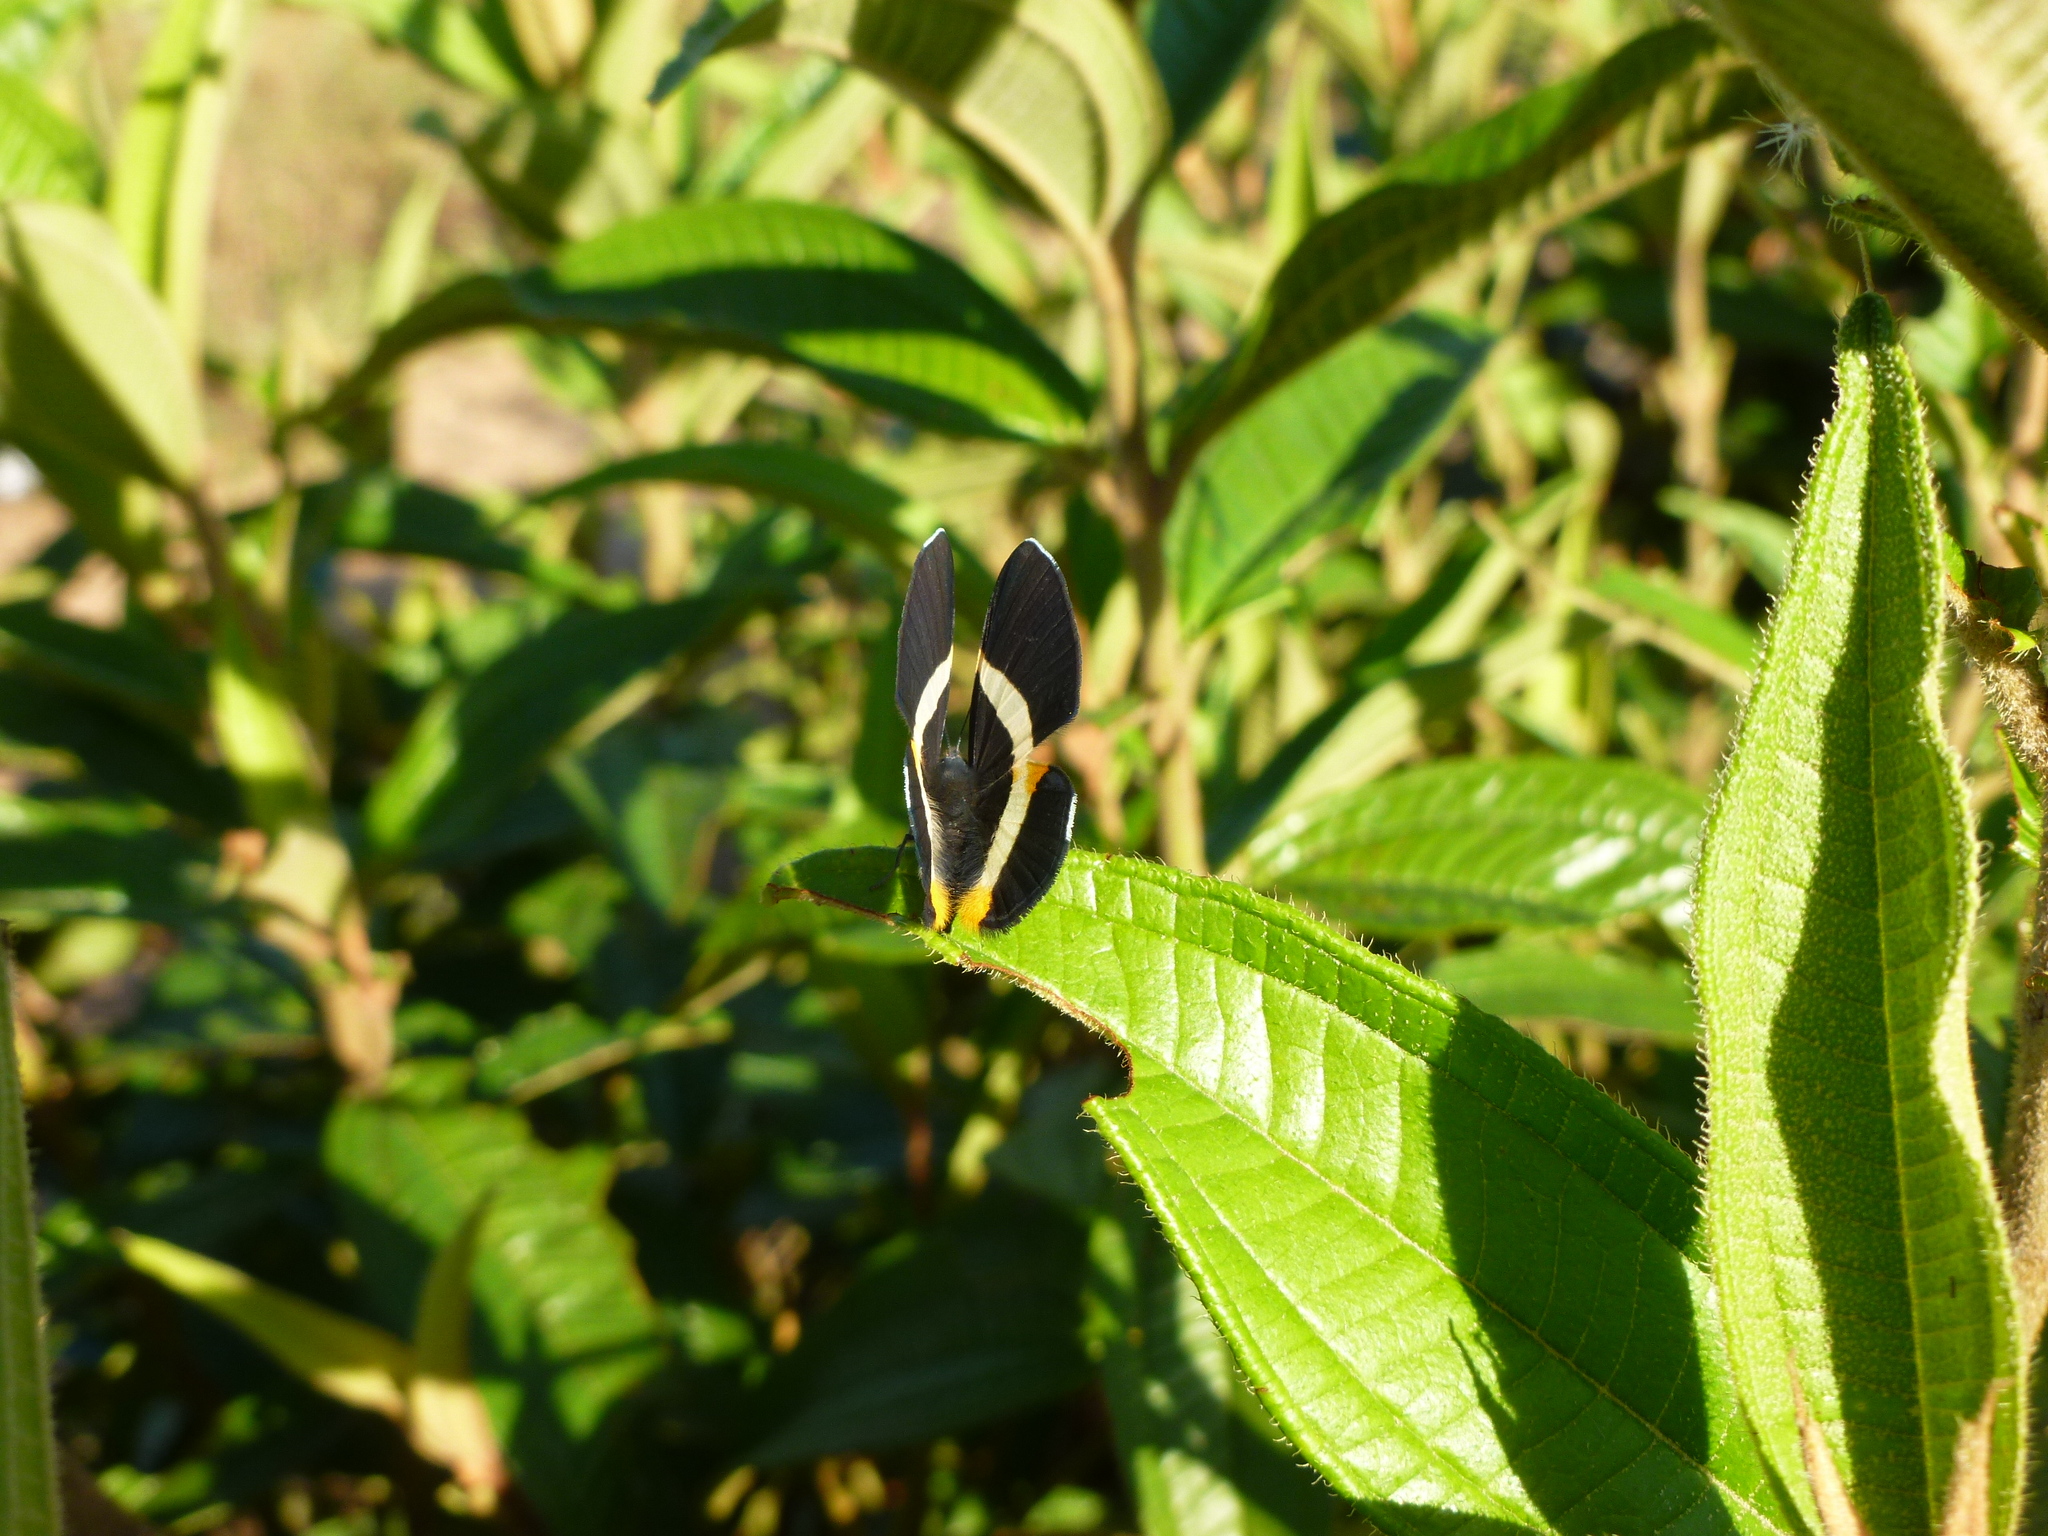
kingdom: Animalia
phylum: Arthropoda
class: Insecta
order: Lepidoptera
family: Riodinidae
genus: Notheme
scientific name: Notheme eumeus
